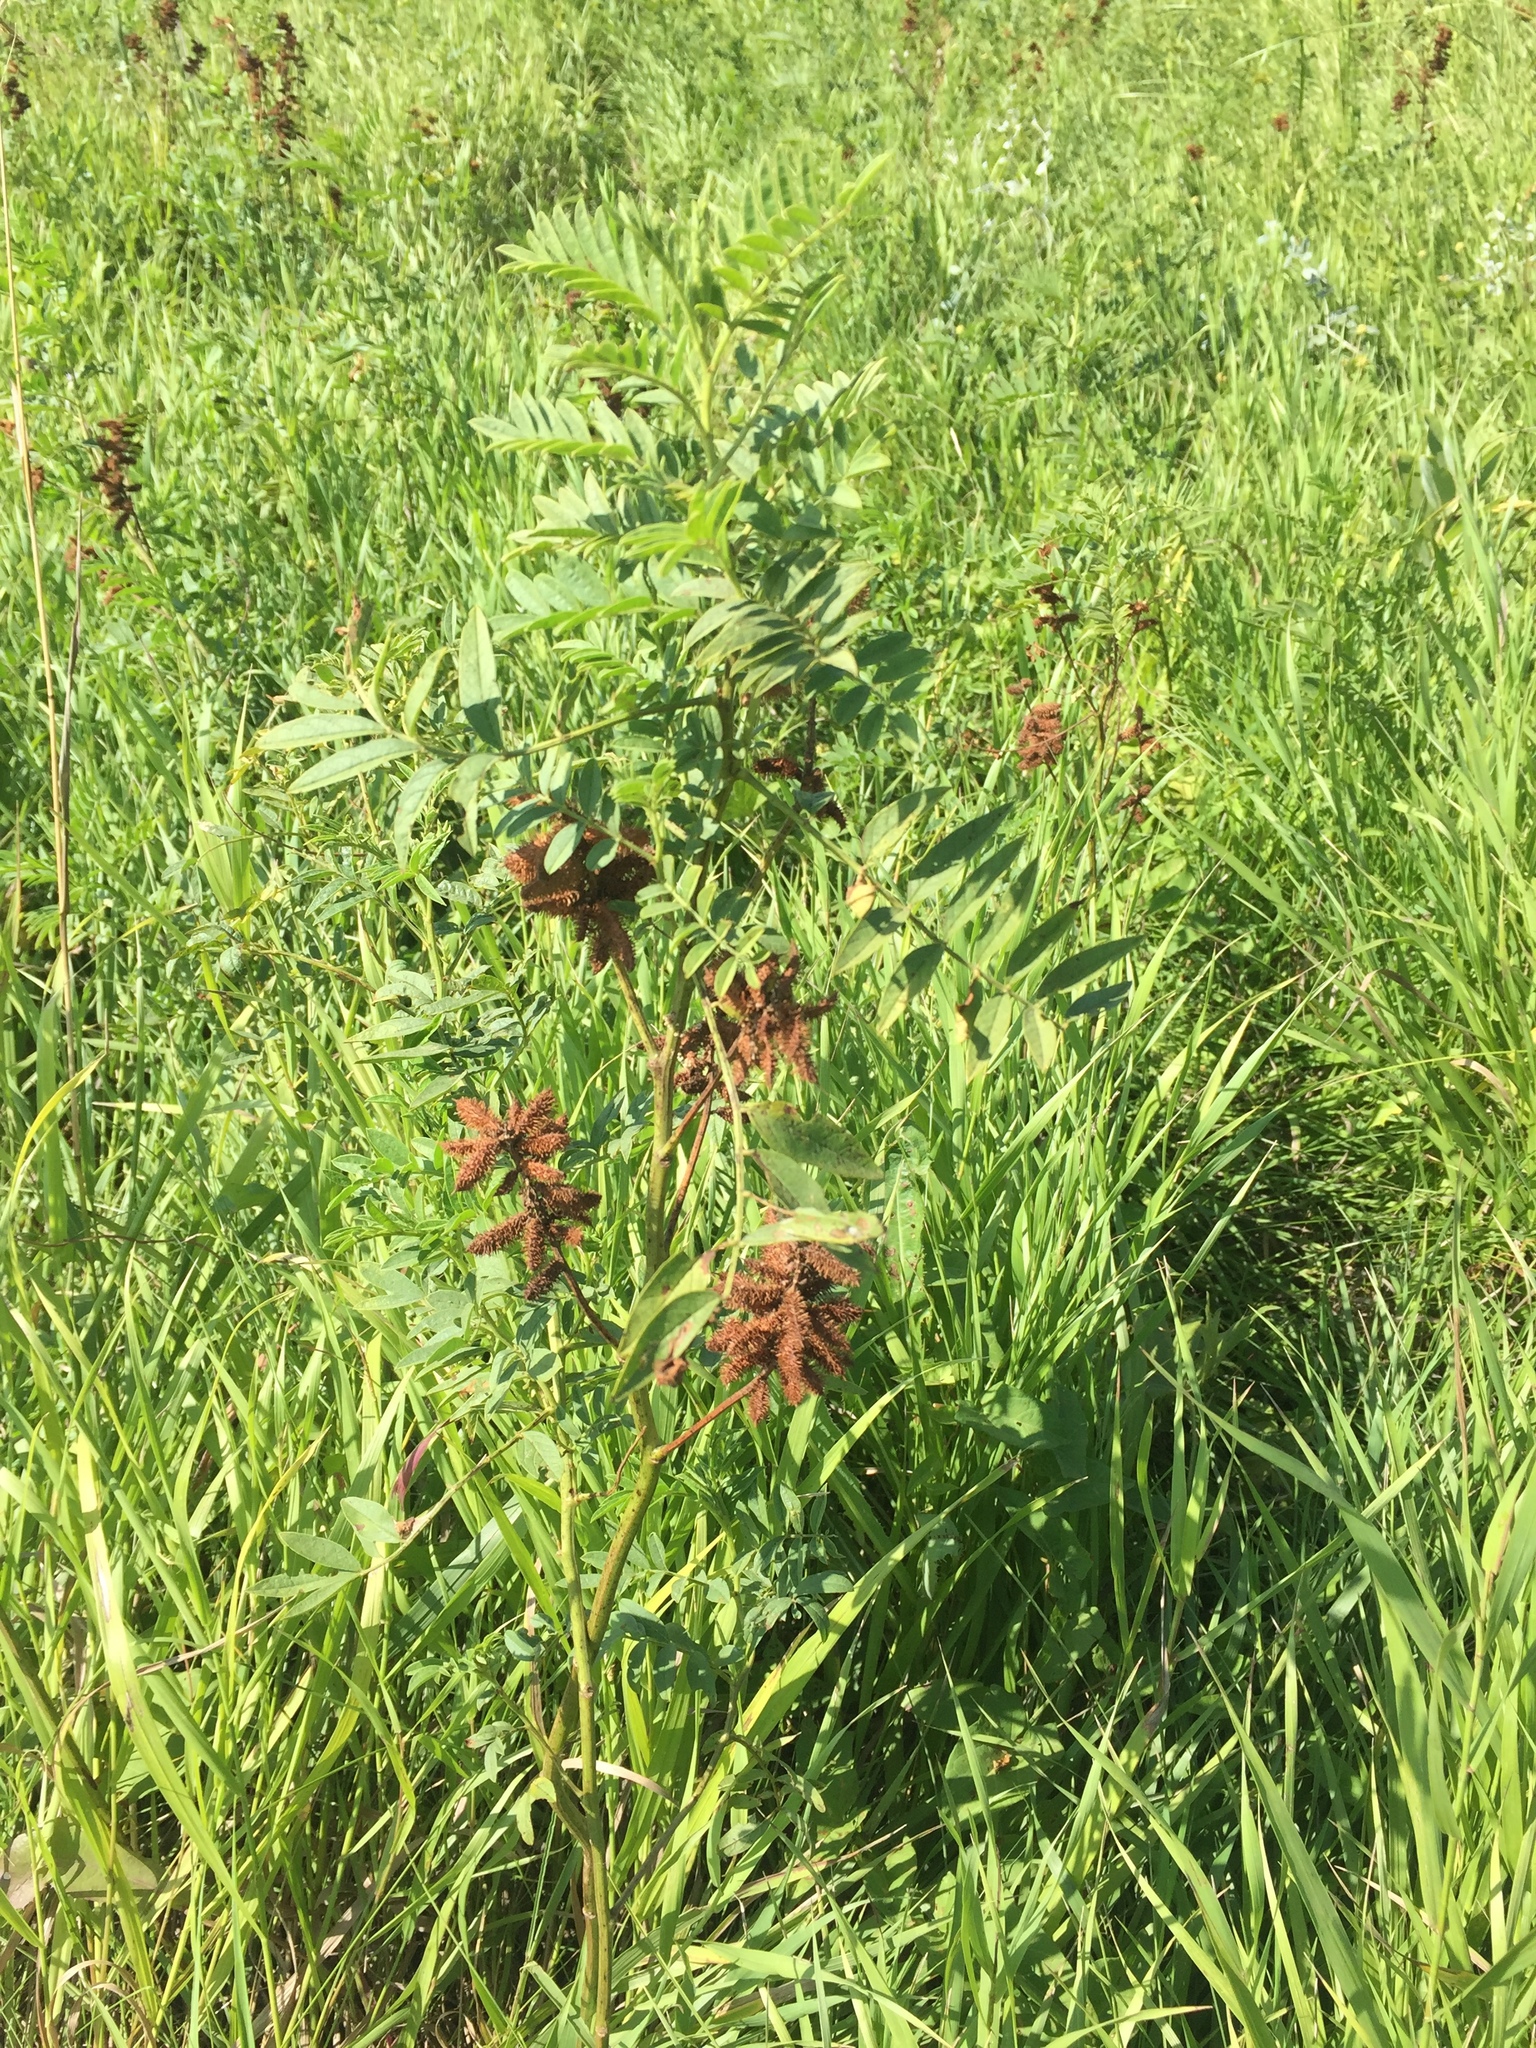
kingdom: Plantae
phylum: Tracheophyta
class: Magnoliopsida
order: Fabales
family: Fabaceae
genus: Glycyrrhiza
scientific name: Glycyrrhiza lepidota
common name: American liquorice
